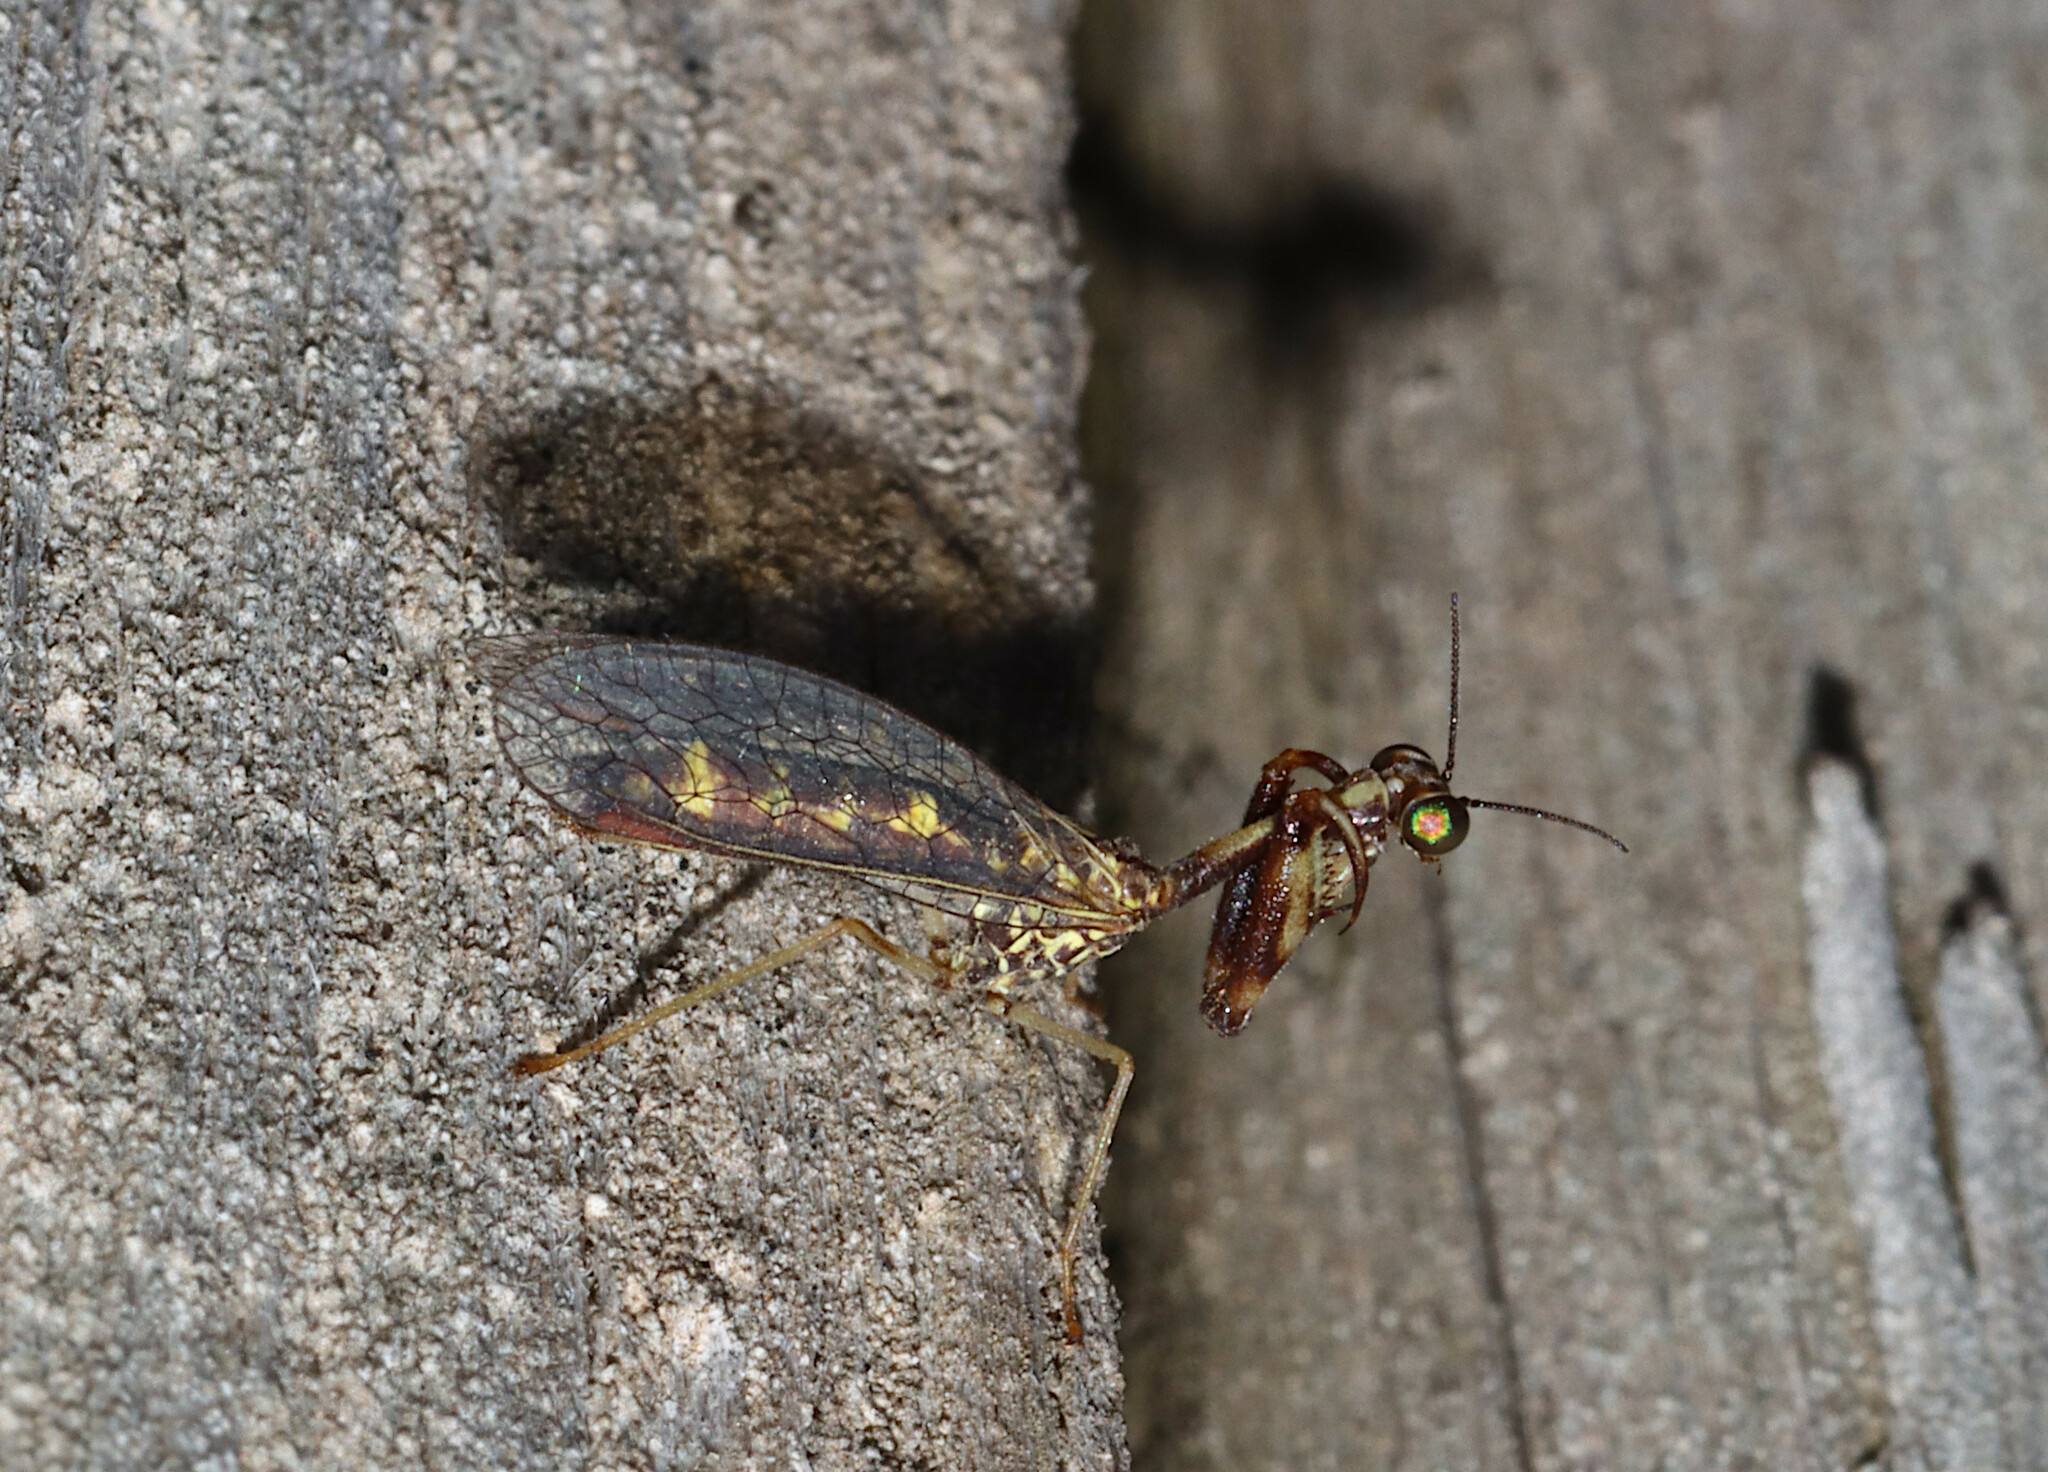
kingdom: Animalia
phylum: Arthropoda
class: Insecta
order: Neuroptera
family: Mantispidae
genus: Leptomantispa
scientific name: Leptomantispa pulchella
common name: Stevens's mantidfly
